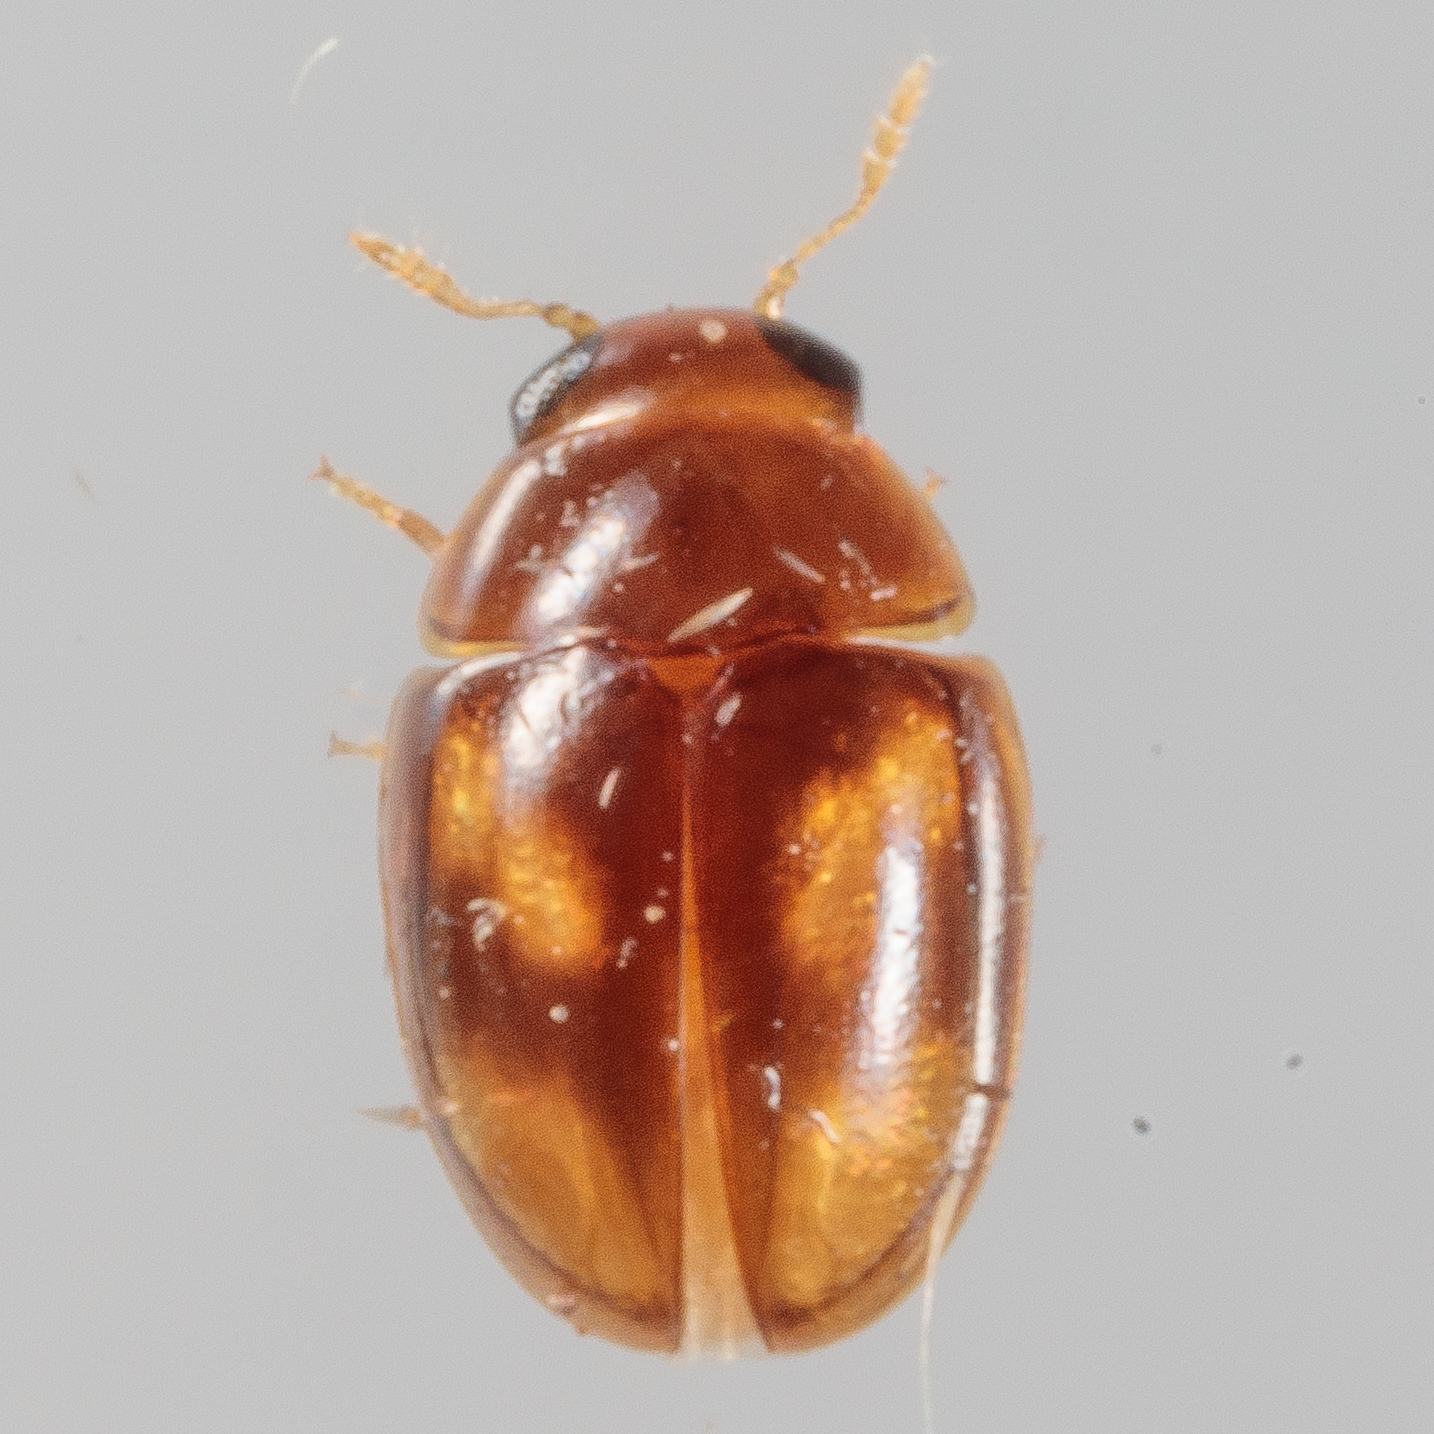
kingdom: Animalia
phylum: Arthropoda
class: Insecta
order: Coleoptera
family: Phalacridae
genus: Neolitochrus
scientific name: Neolitochrus
